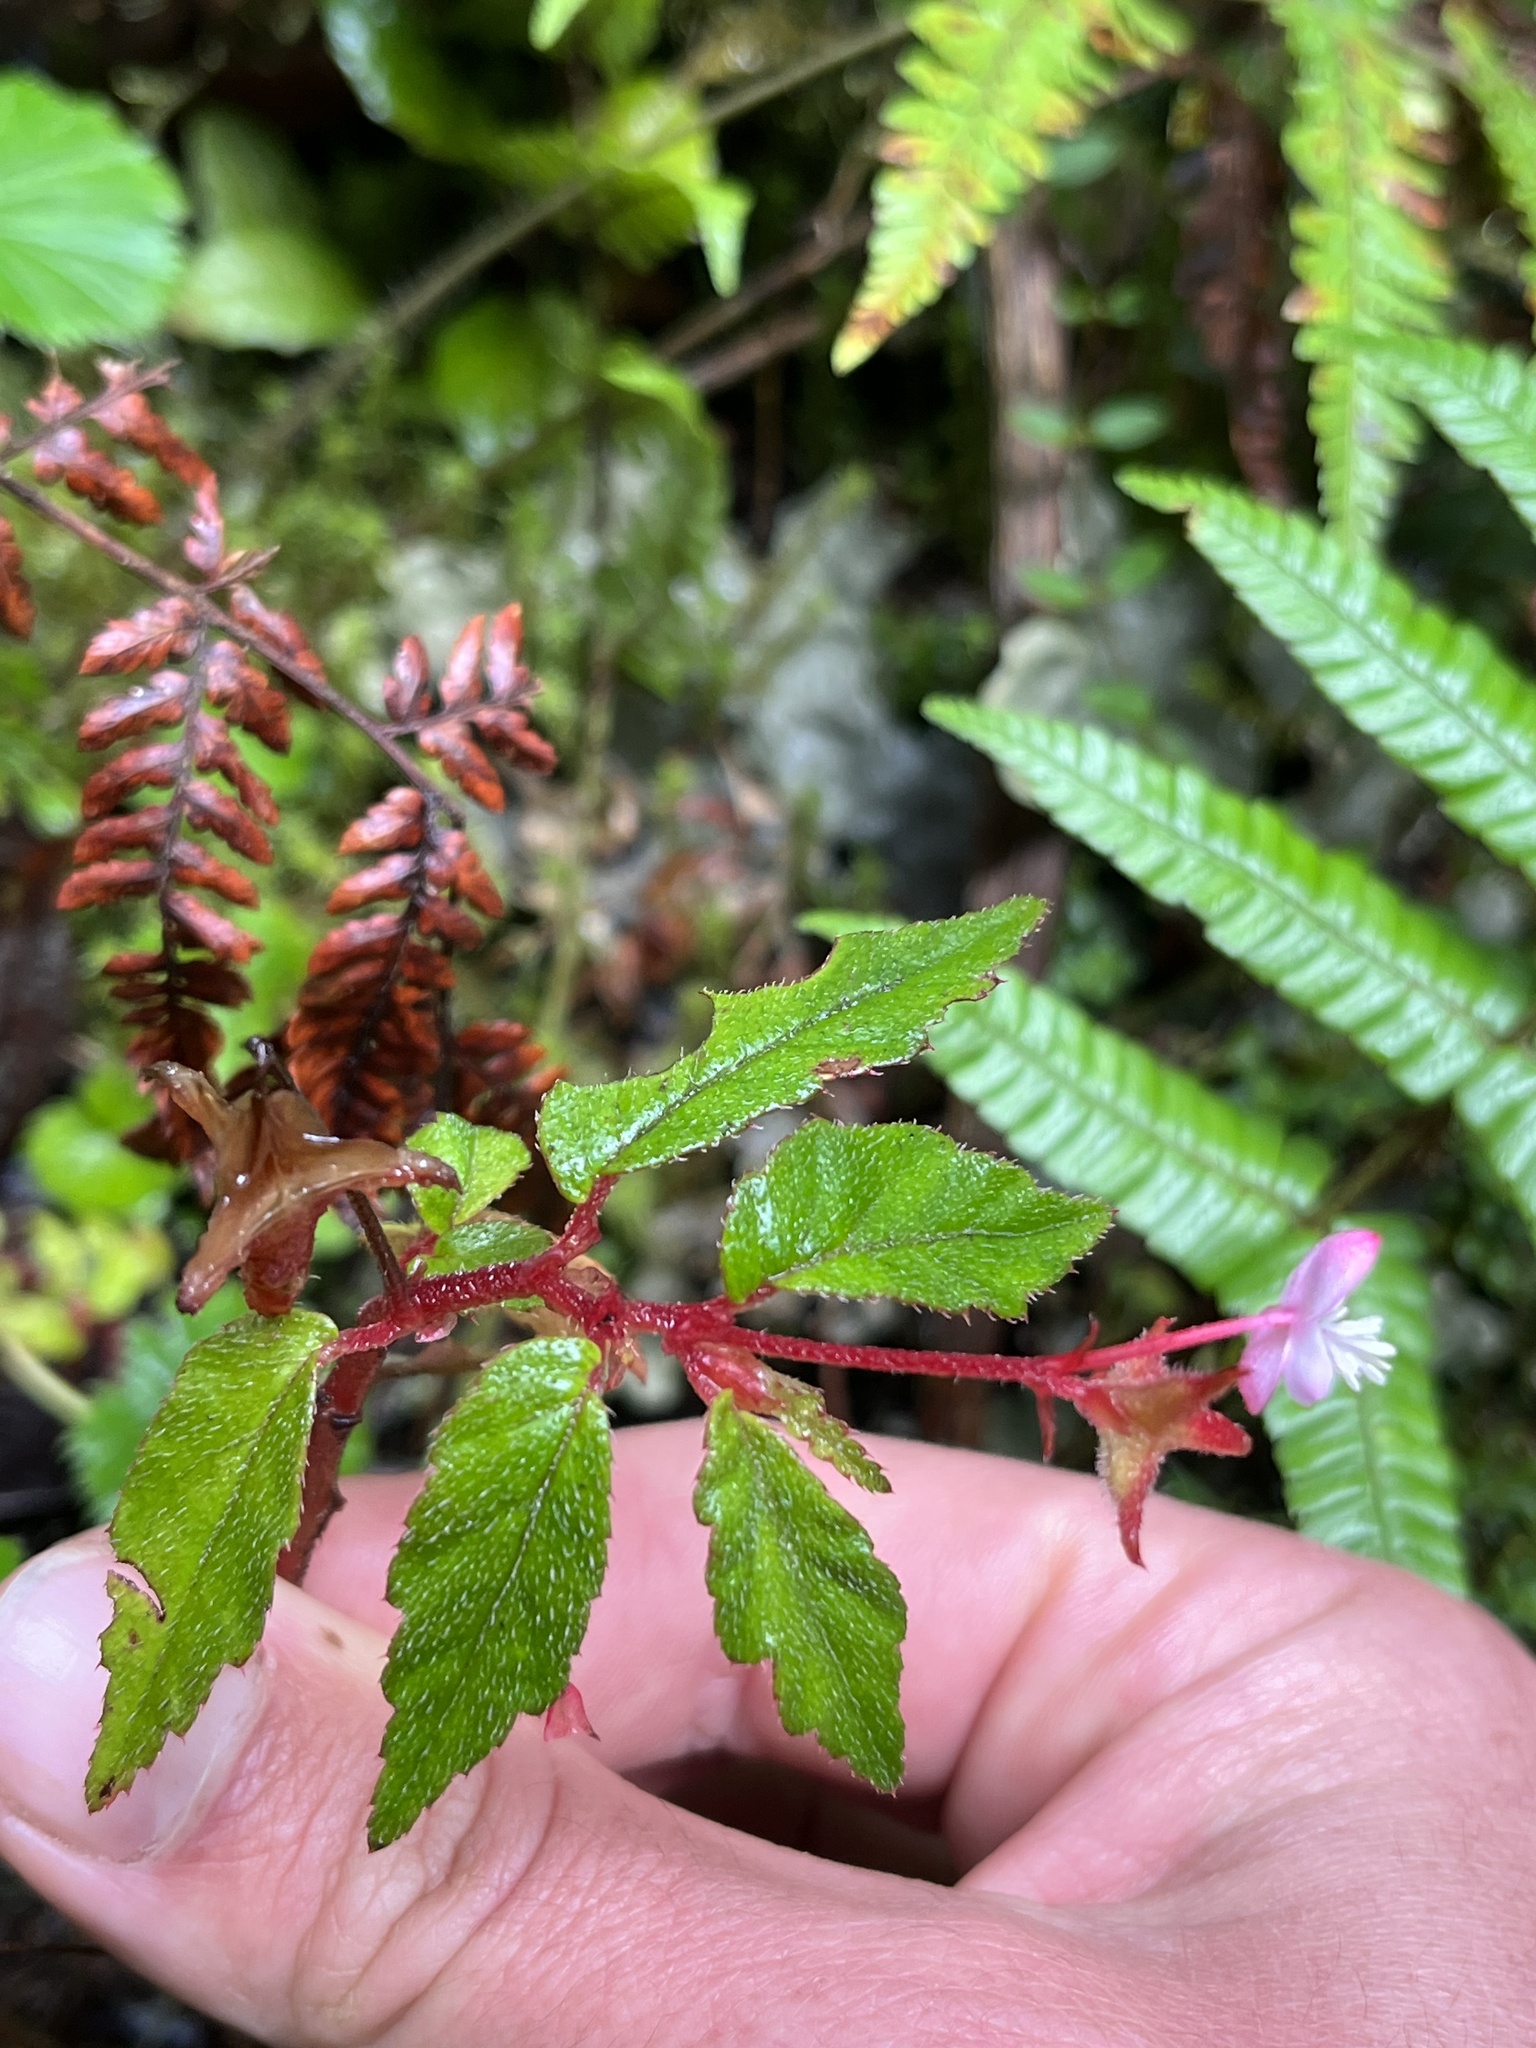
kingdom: Plantae
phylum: Tracheophyta
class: Magnoliopsida
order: Cucurbitales
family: Begoniaceae
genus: Begonia
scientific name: Begonia urticae
